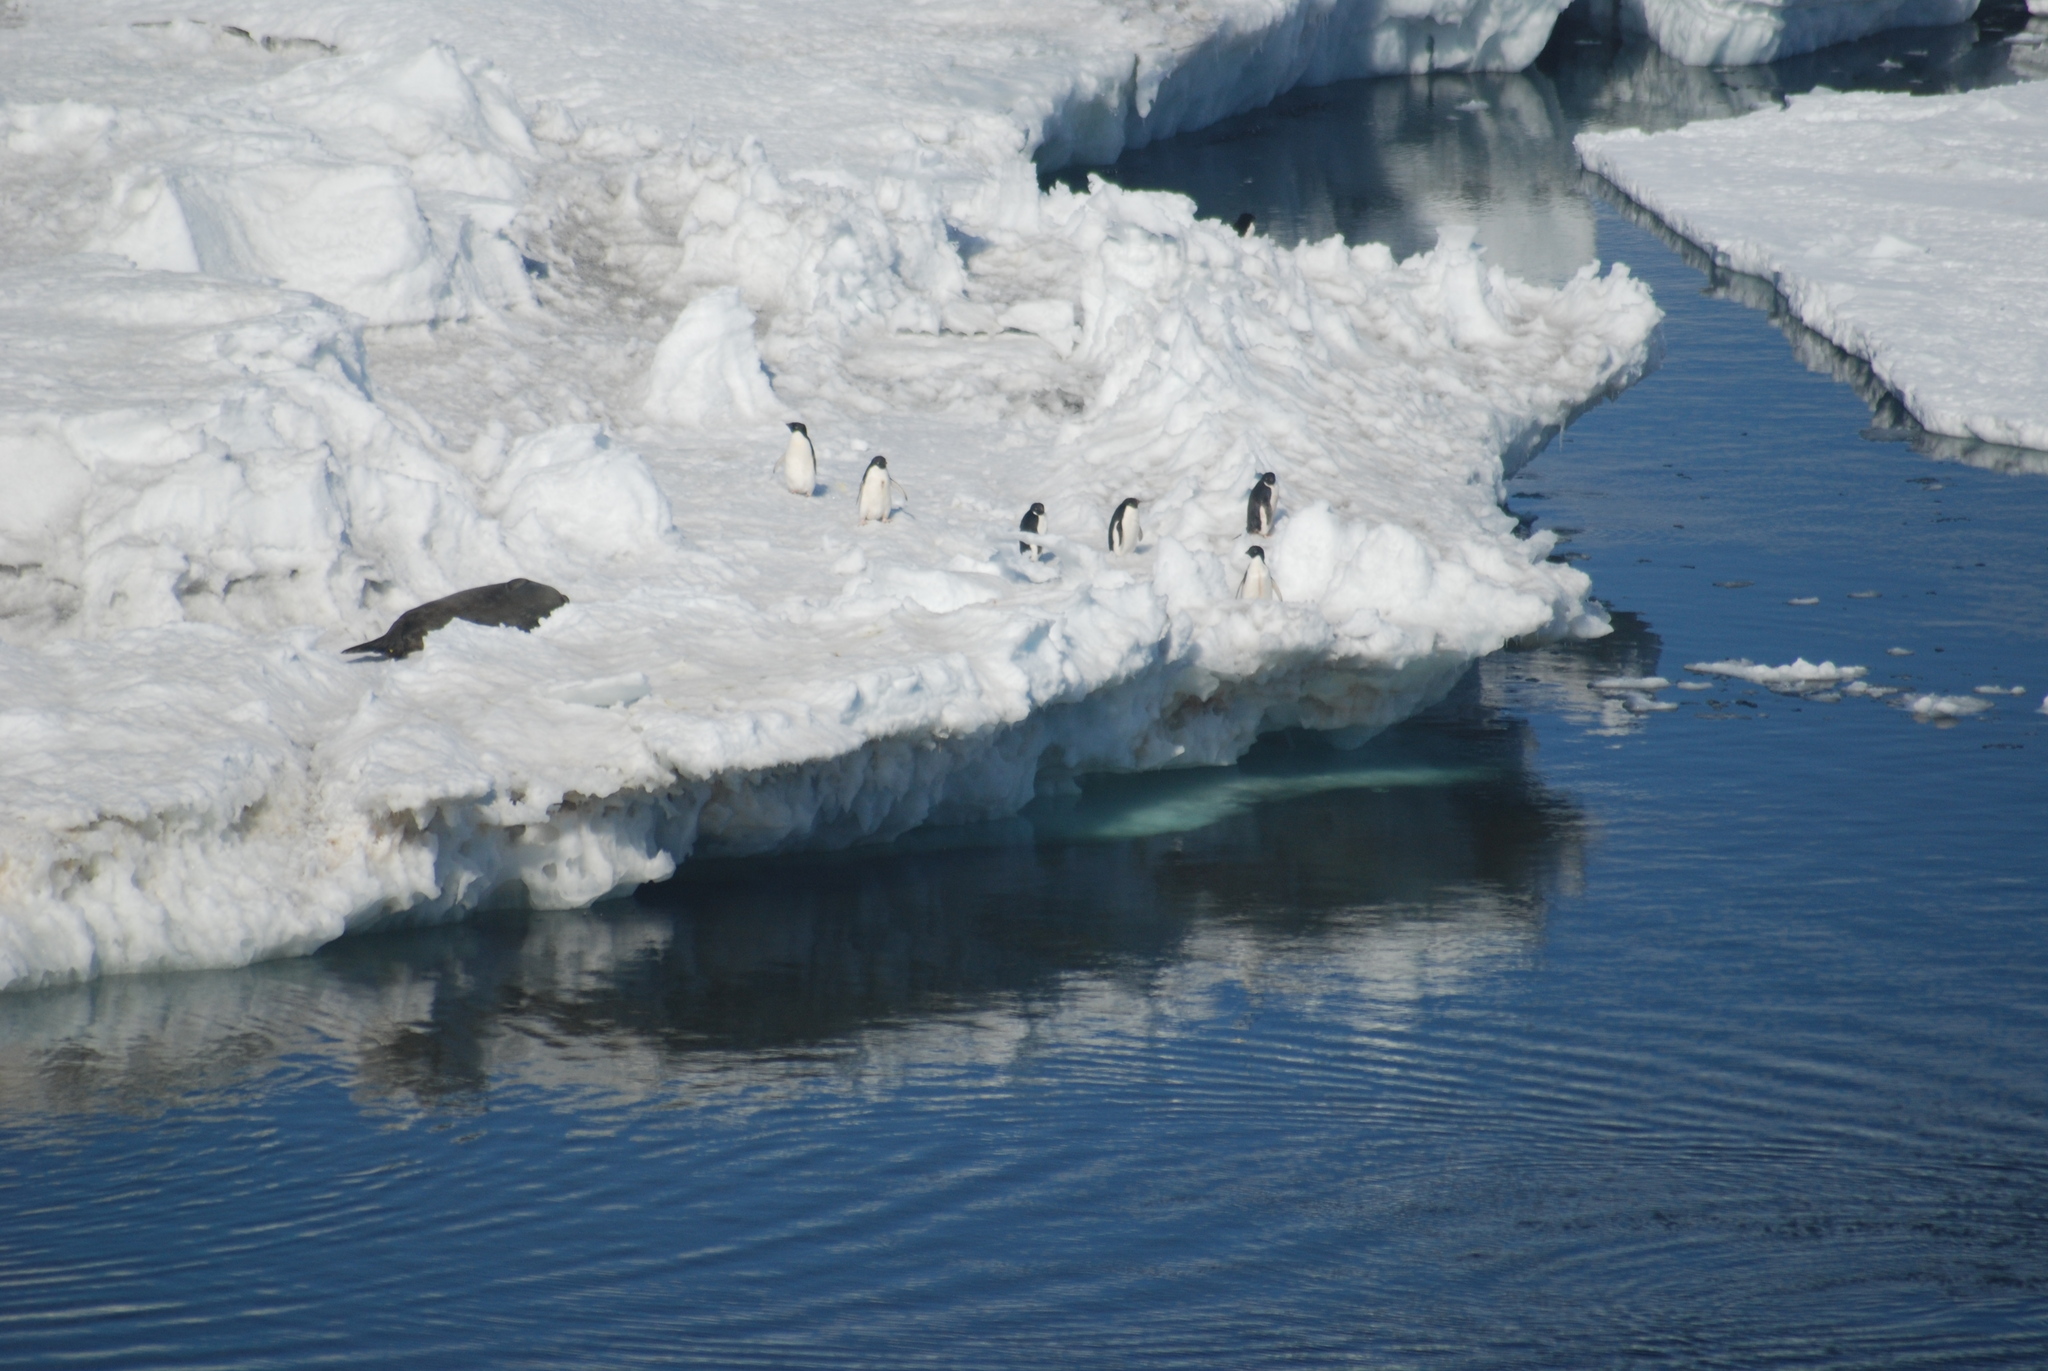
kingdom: Animalia
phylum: Chordata
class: Mammalia
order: Carnivora
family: Phocidae
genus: Leptonychotes
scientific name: Leptonychotes weddellii
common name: Weddell seal
